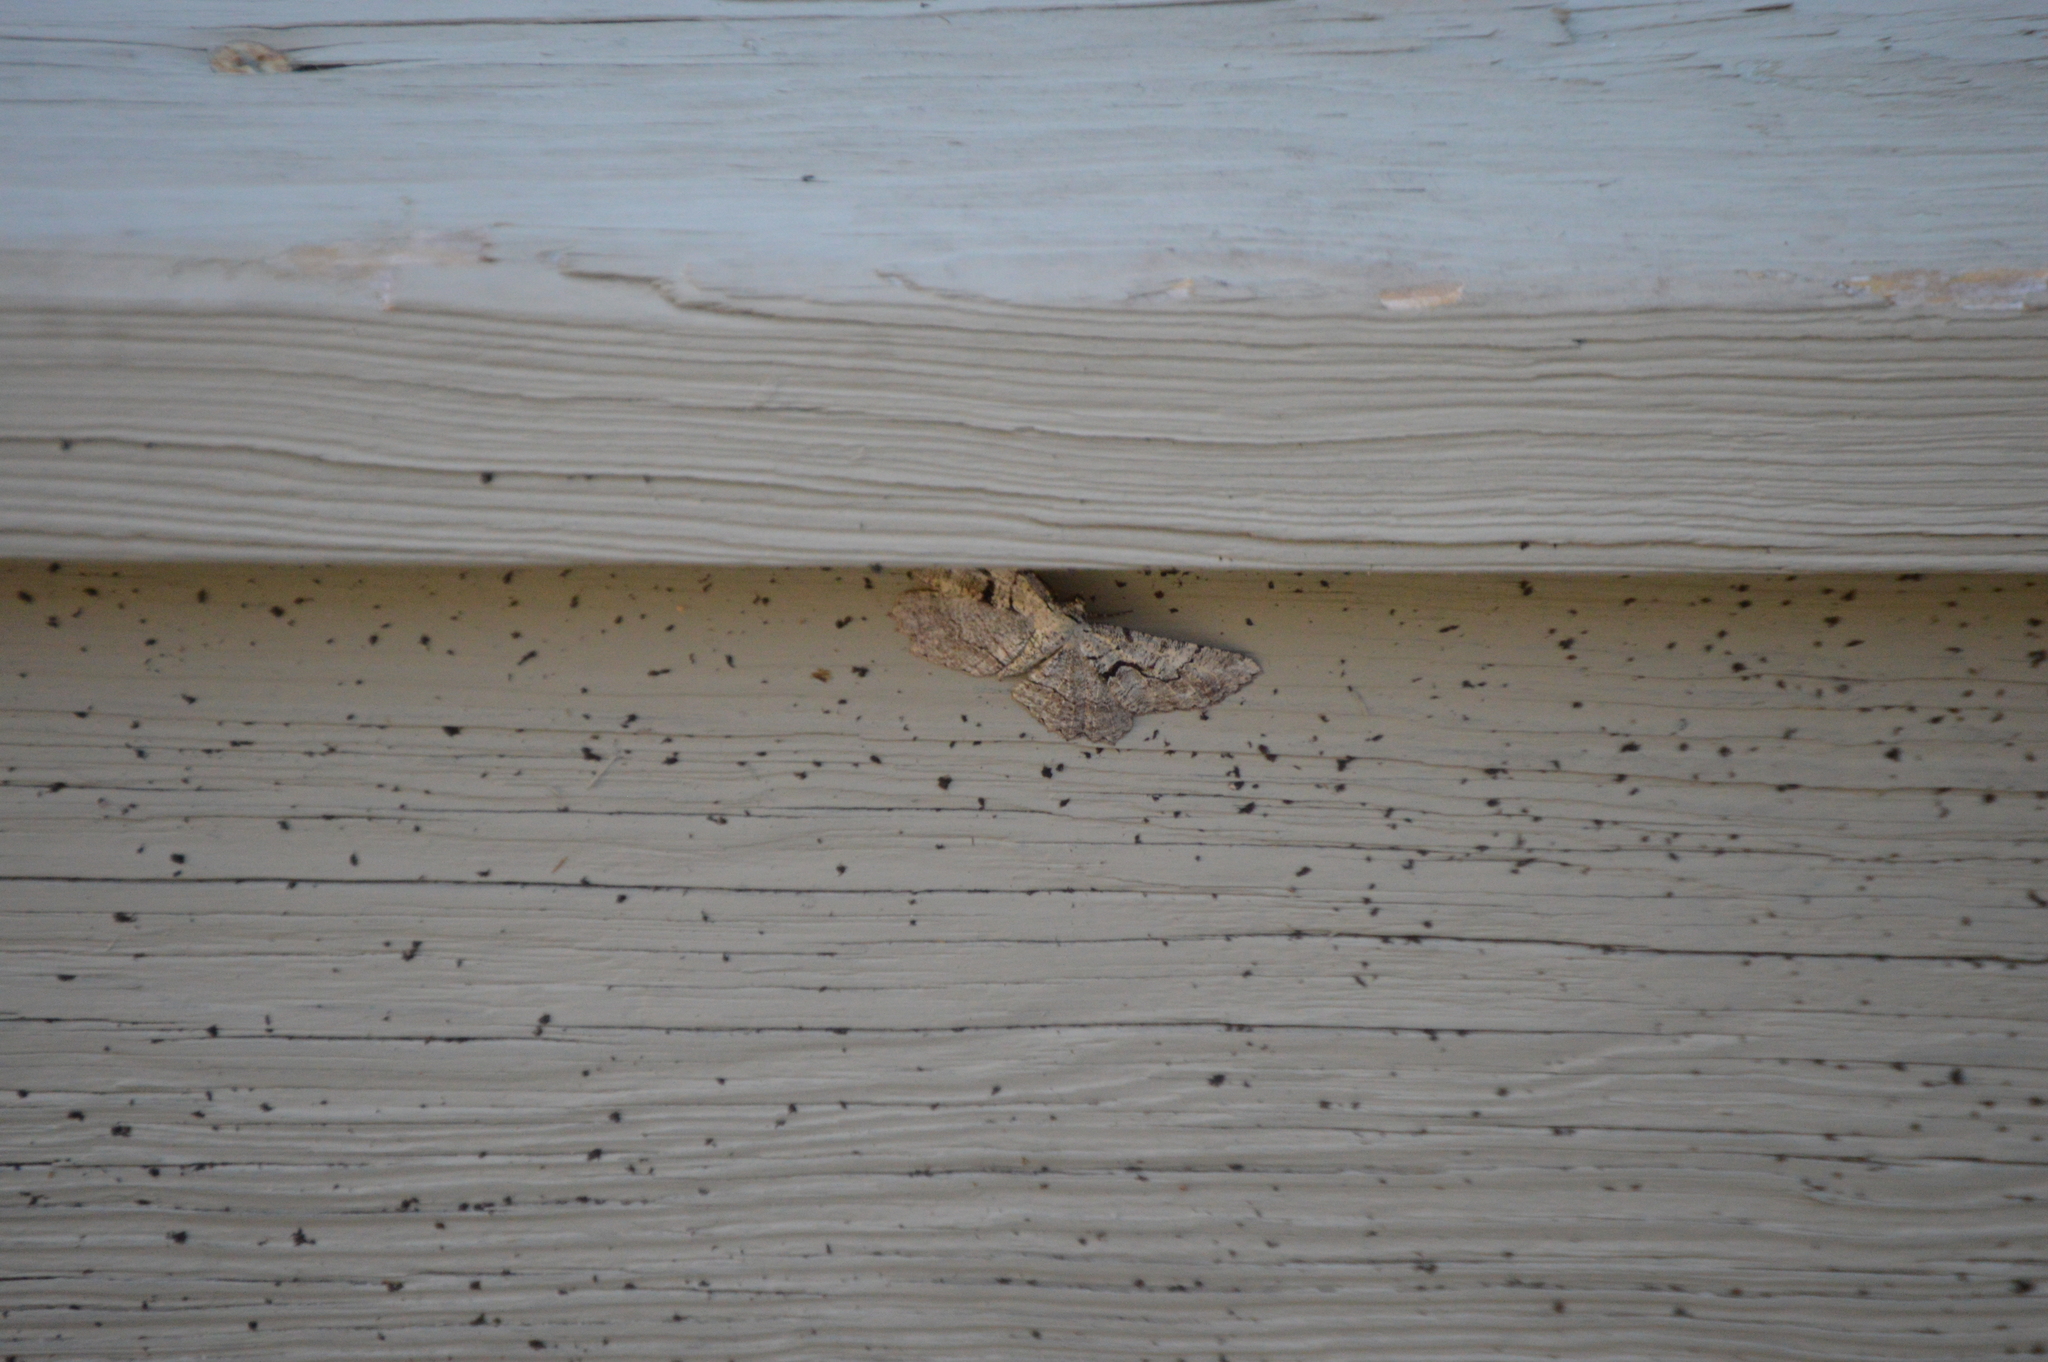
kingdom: Animalia
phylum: Arthropoda
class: Insecta
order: Lepidoptera
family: Geometridae
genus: Cymatophora
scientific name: Cymatophora approximaria
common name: Giant gray moth
